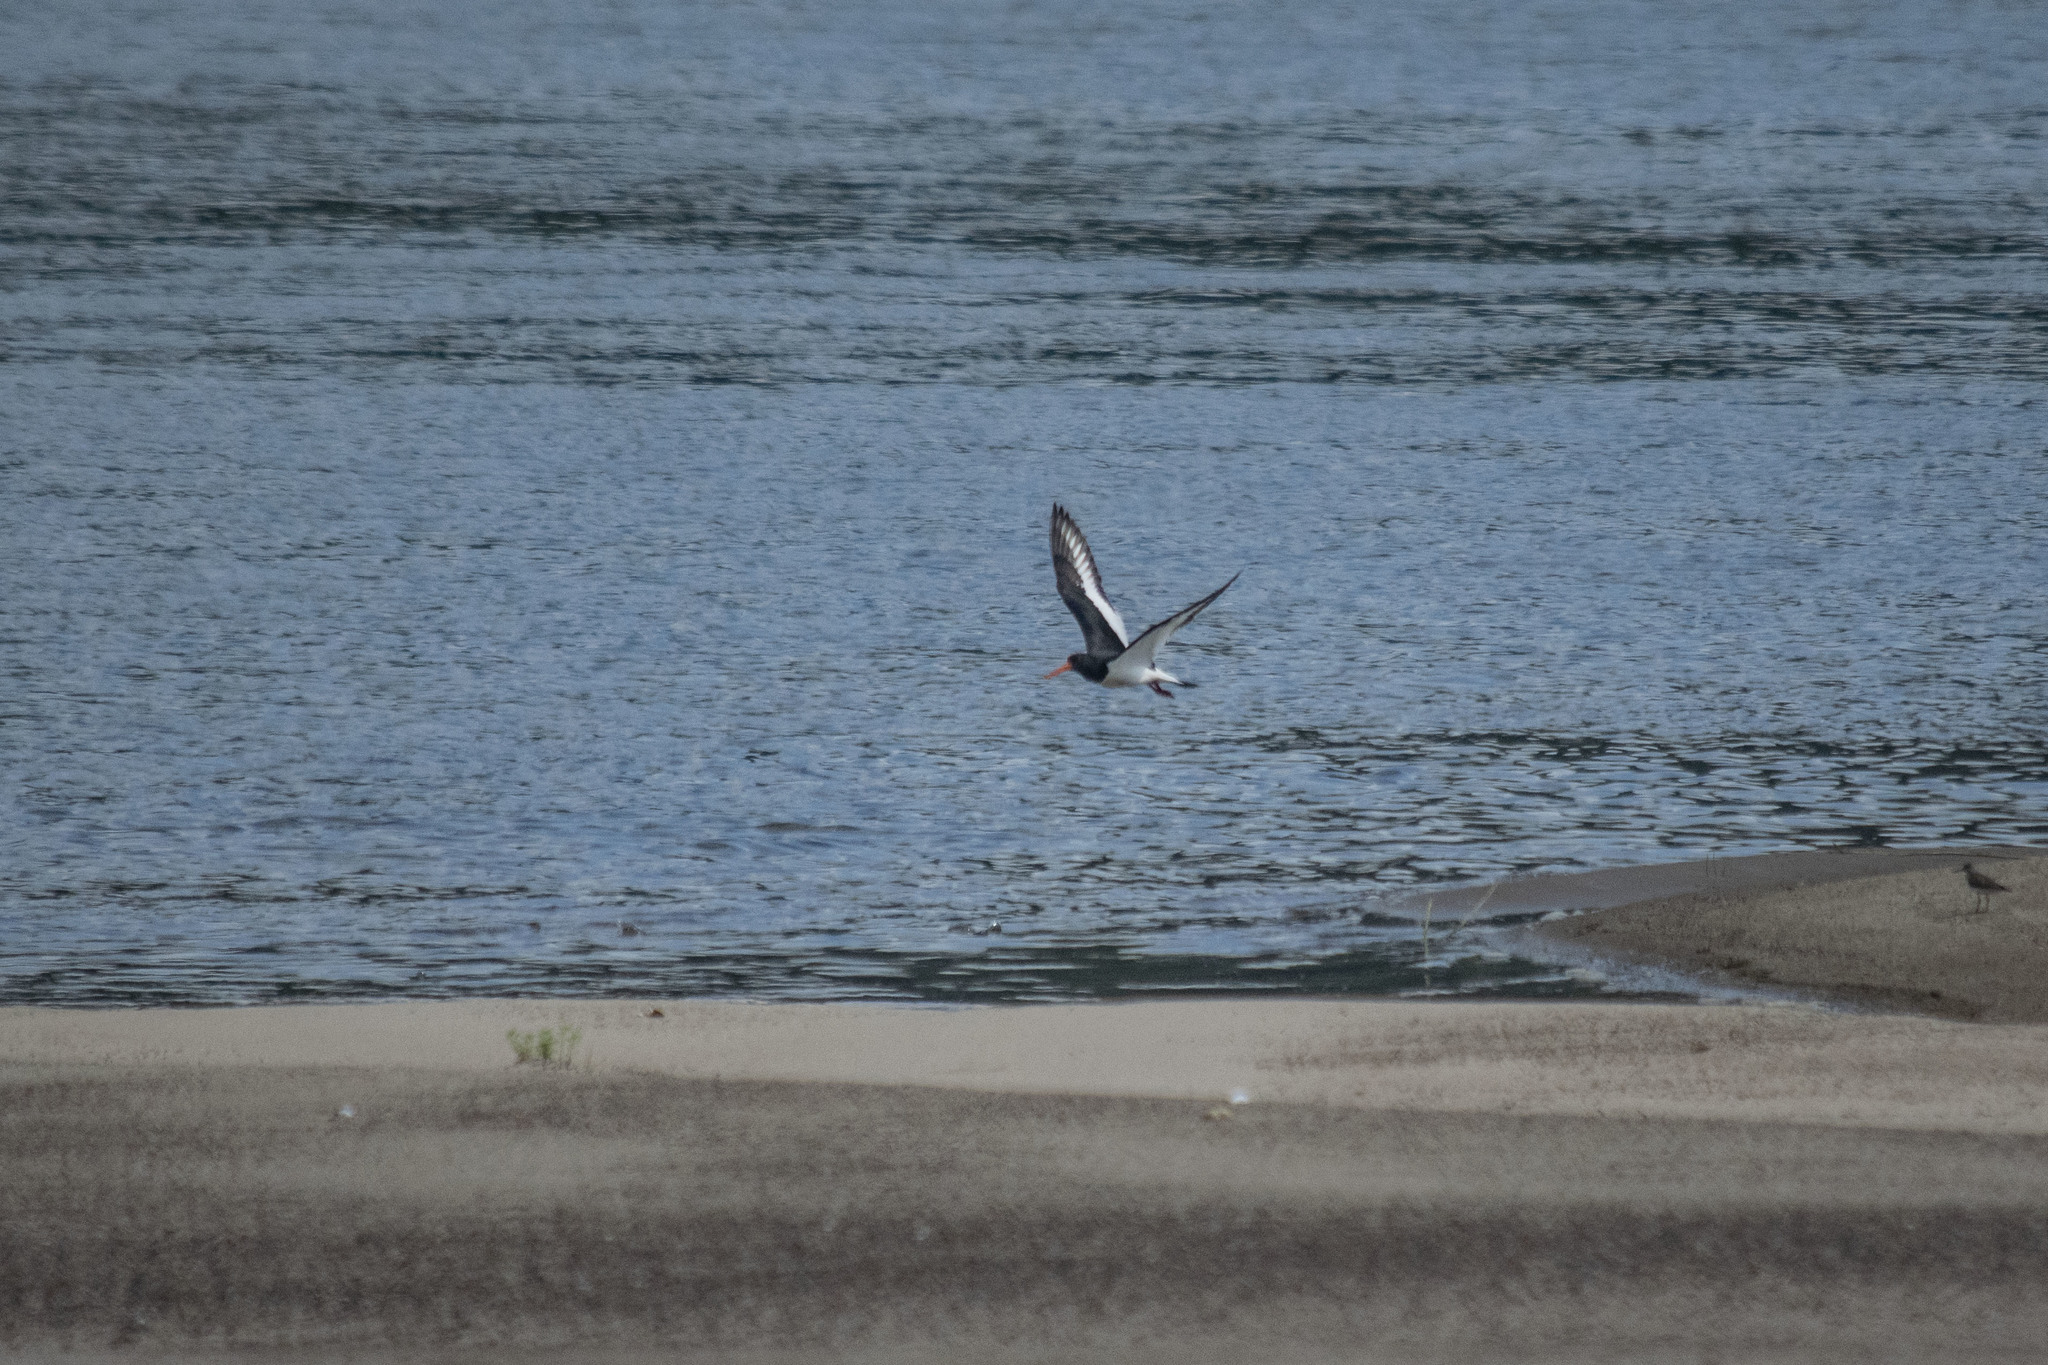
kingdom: Animalia
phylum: Chordata
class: Aves
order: Charadriiformes
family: Haematopodidae
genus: Haematopus
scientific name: Haematopus ostralegus
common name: Eurasian oystercatcher
